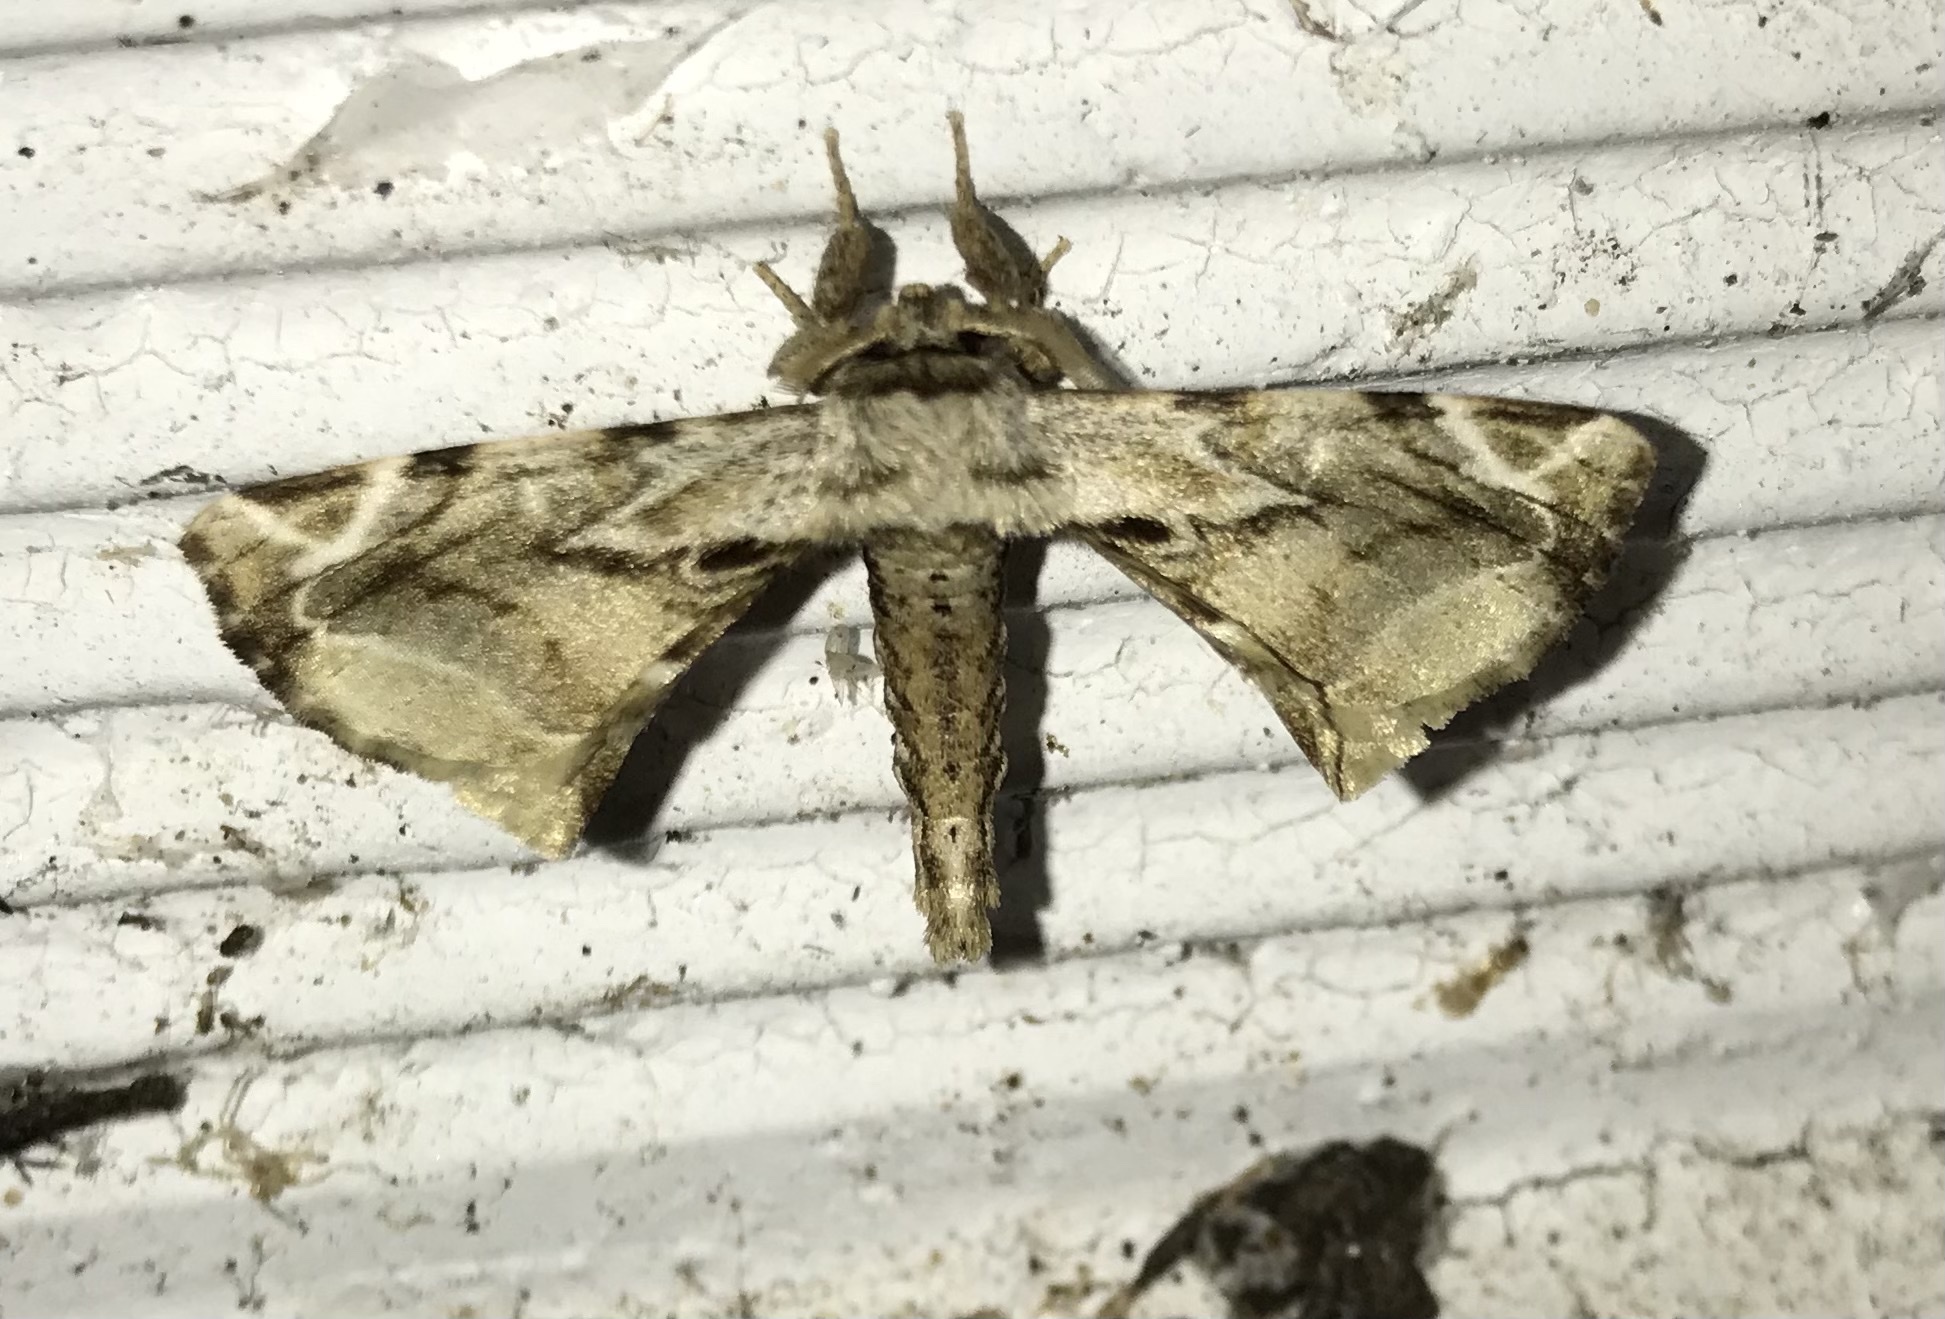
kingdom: Animalia
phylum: Arthropoda
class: Insecta
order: Lepidoptera
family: Apatelodidae
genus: Hygrochroa
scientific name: Hygrochroa singularis
